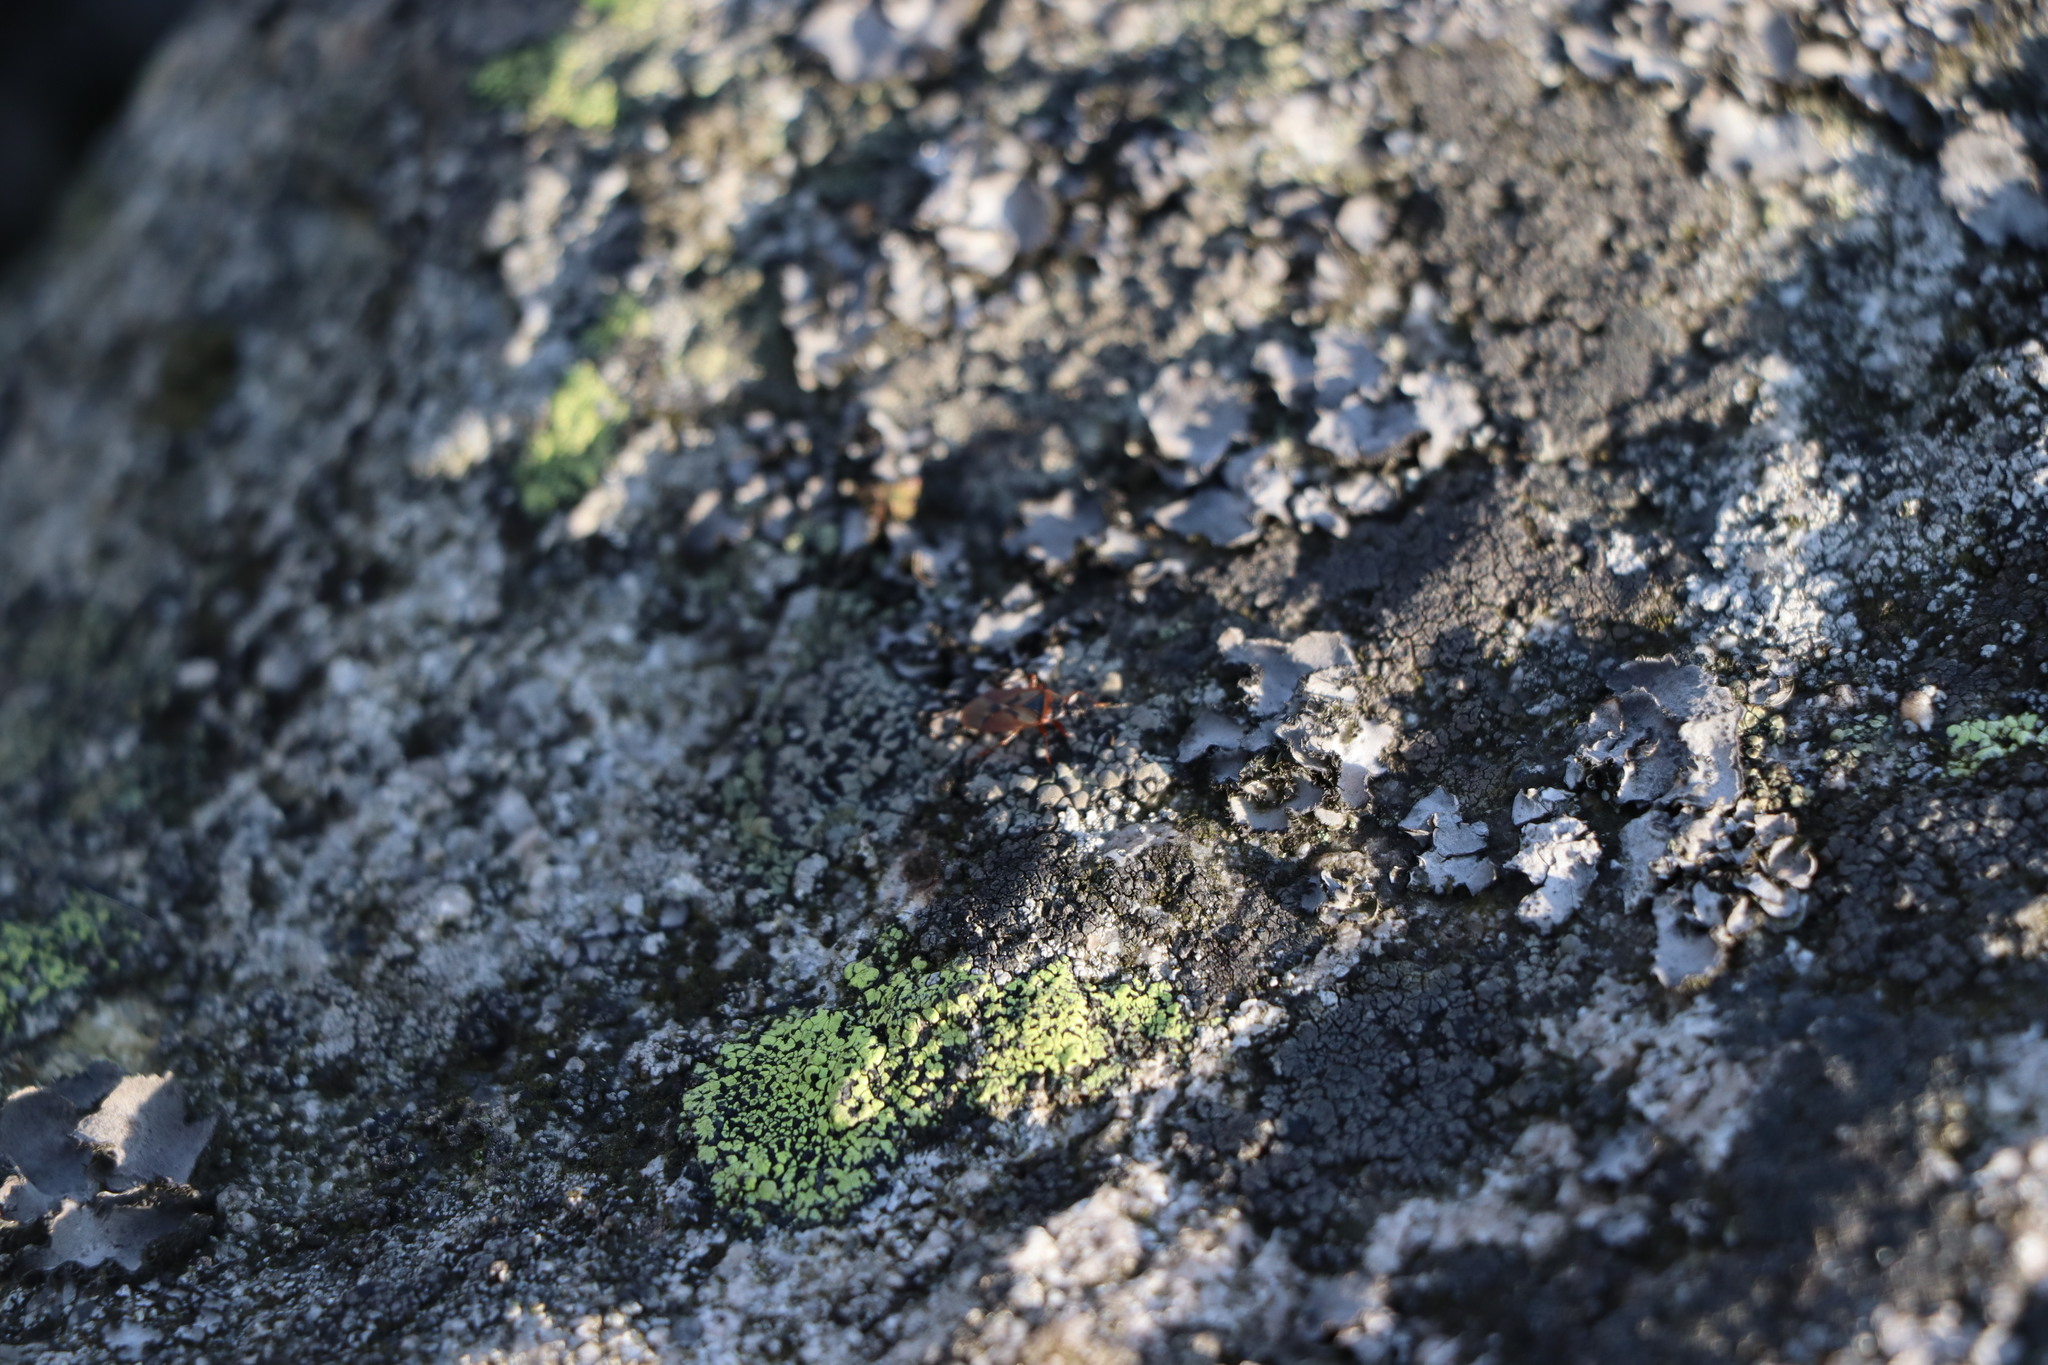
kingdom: Animalia
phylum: Arthropoda
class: Insecta
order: Hemiptera
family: Rhyparochromidae
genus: Gastrodes
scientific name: Gastrodes abietum
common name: Spruce cone bug
